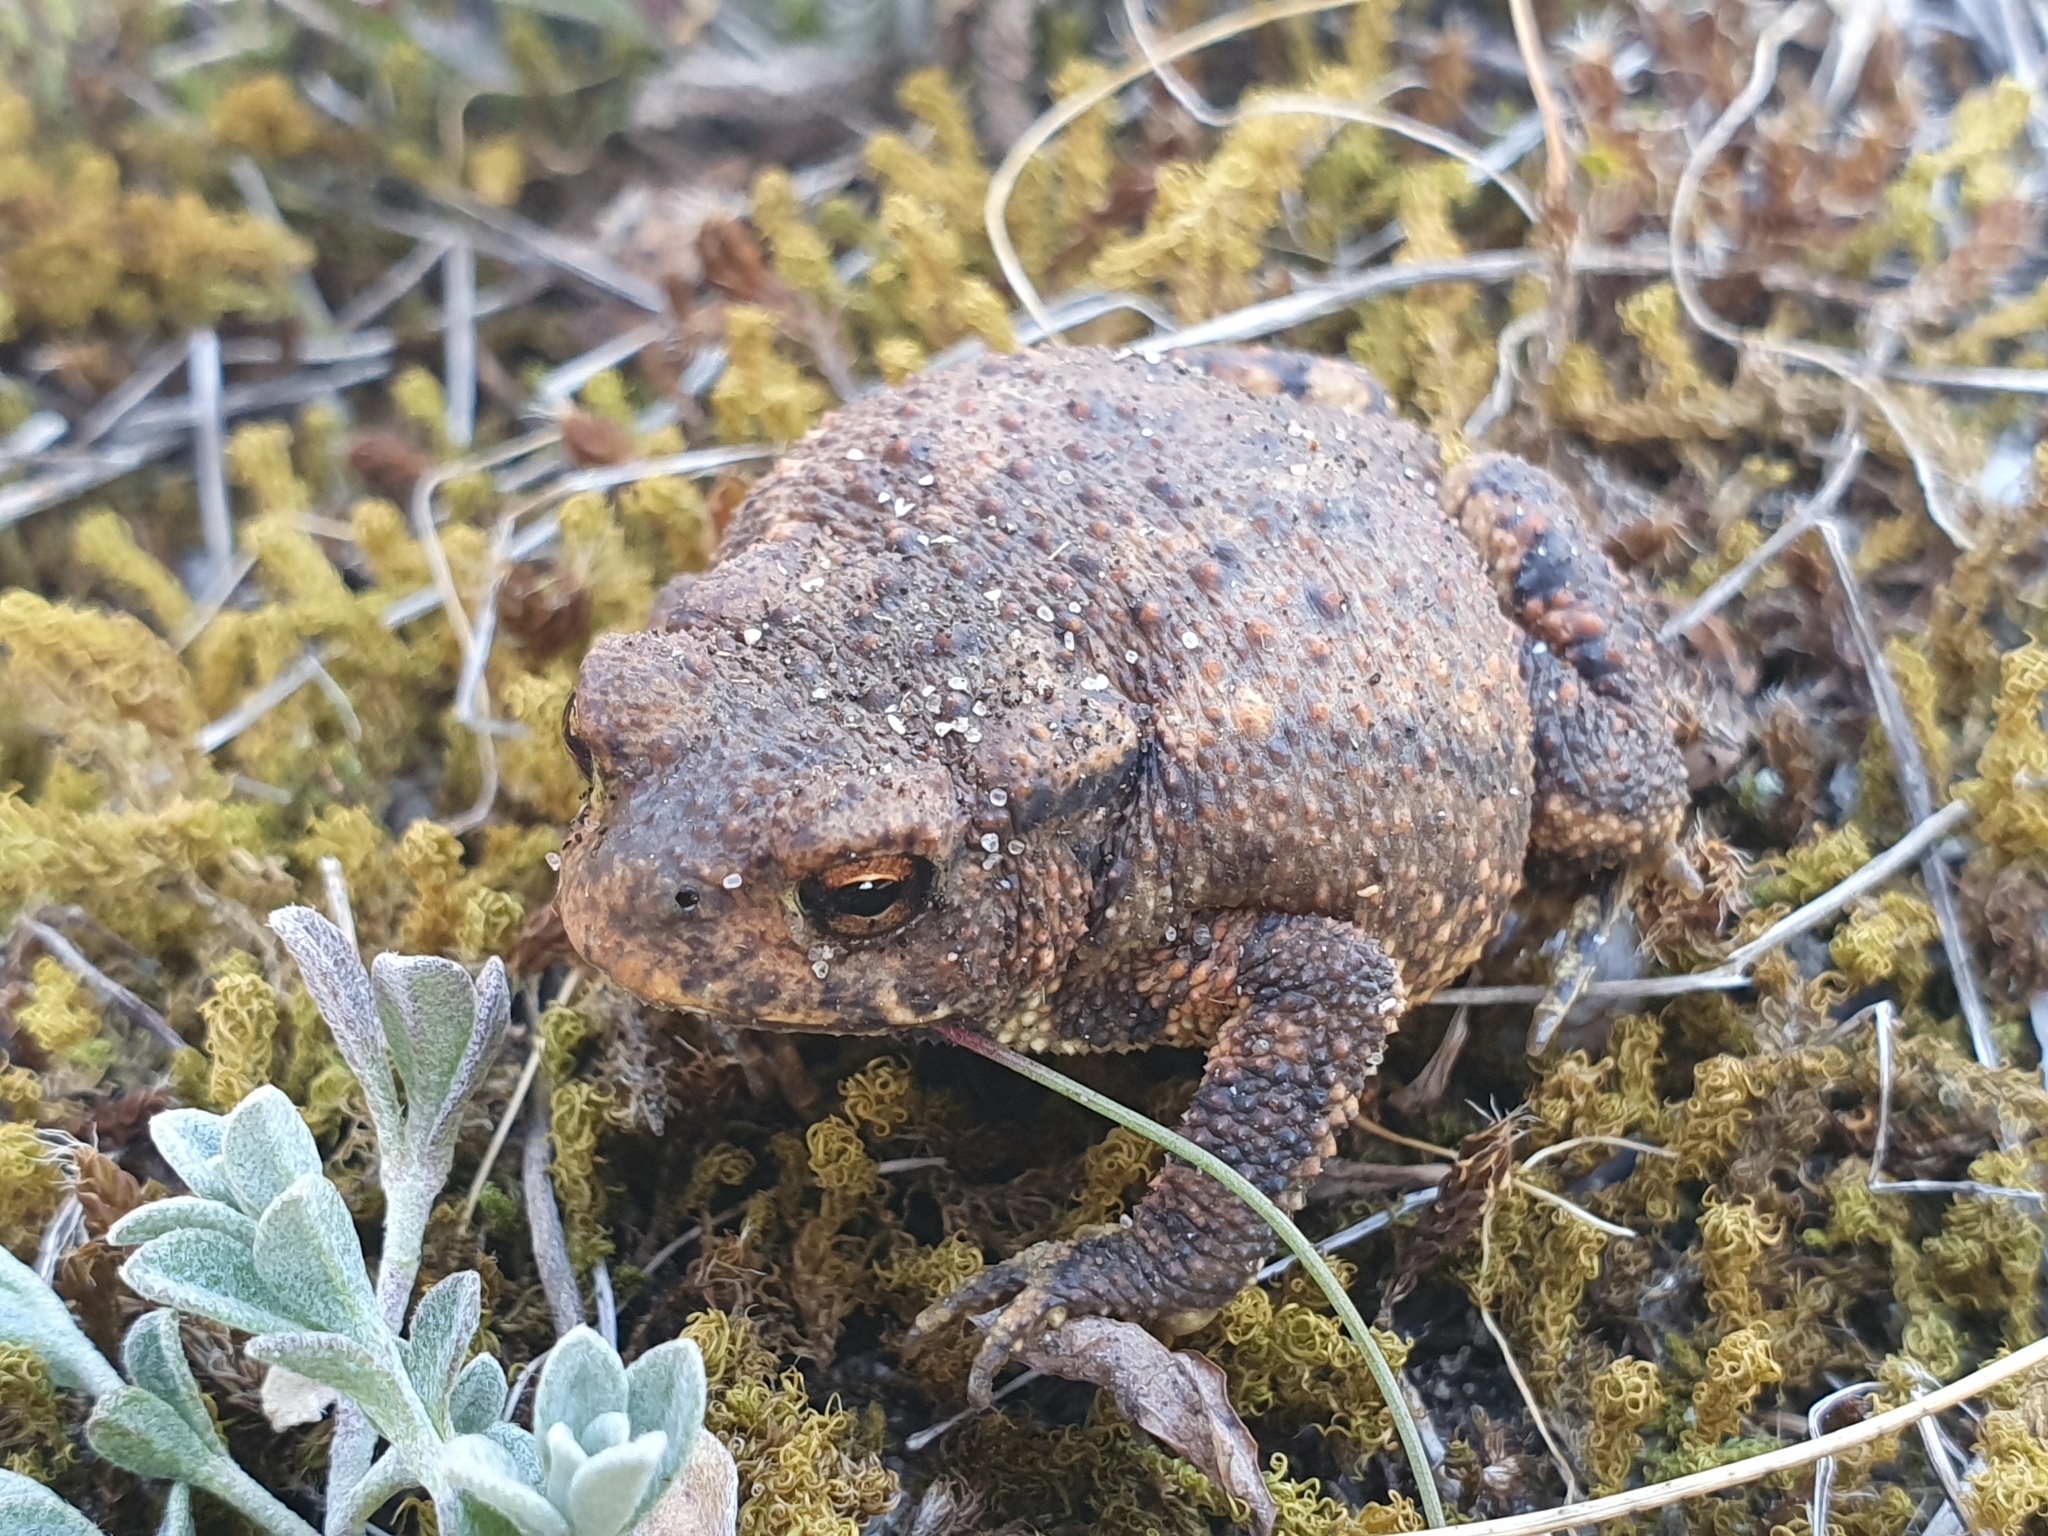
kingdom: Animalia
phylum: Chordata
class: Amphibia
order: Anura
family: Bufonidae
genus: Bufo
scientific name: Bufo spinosus
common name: Western common toad
